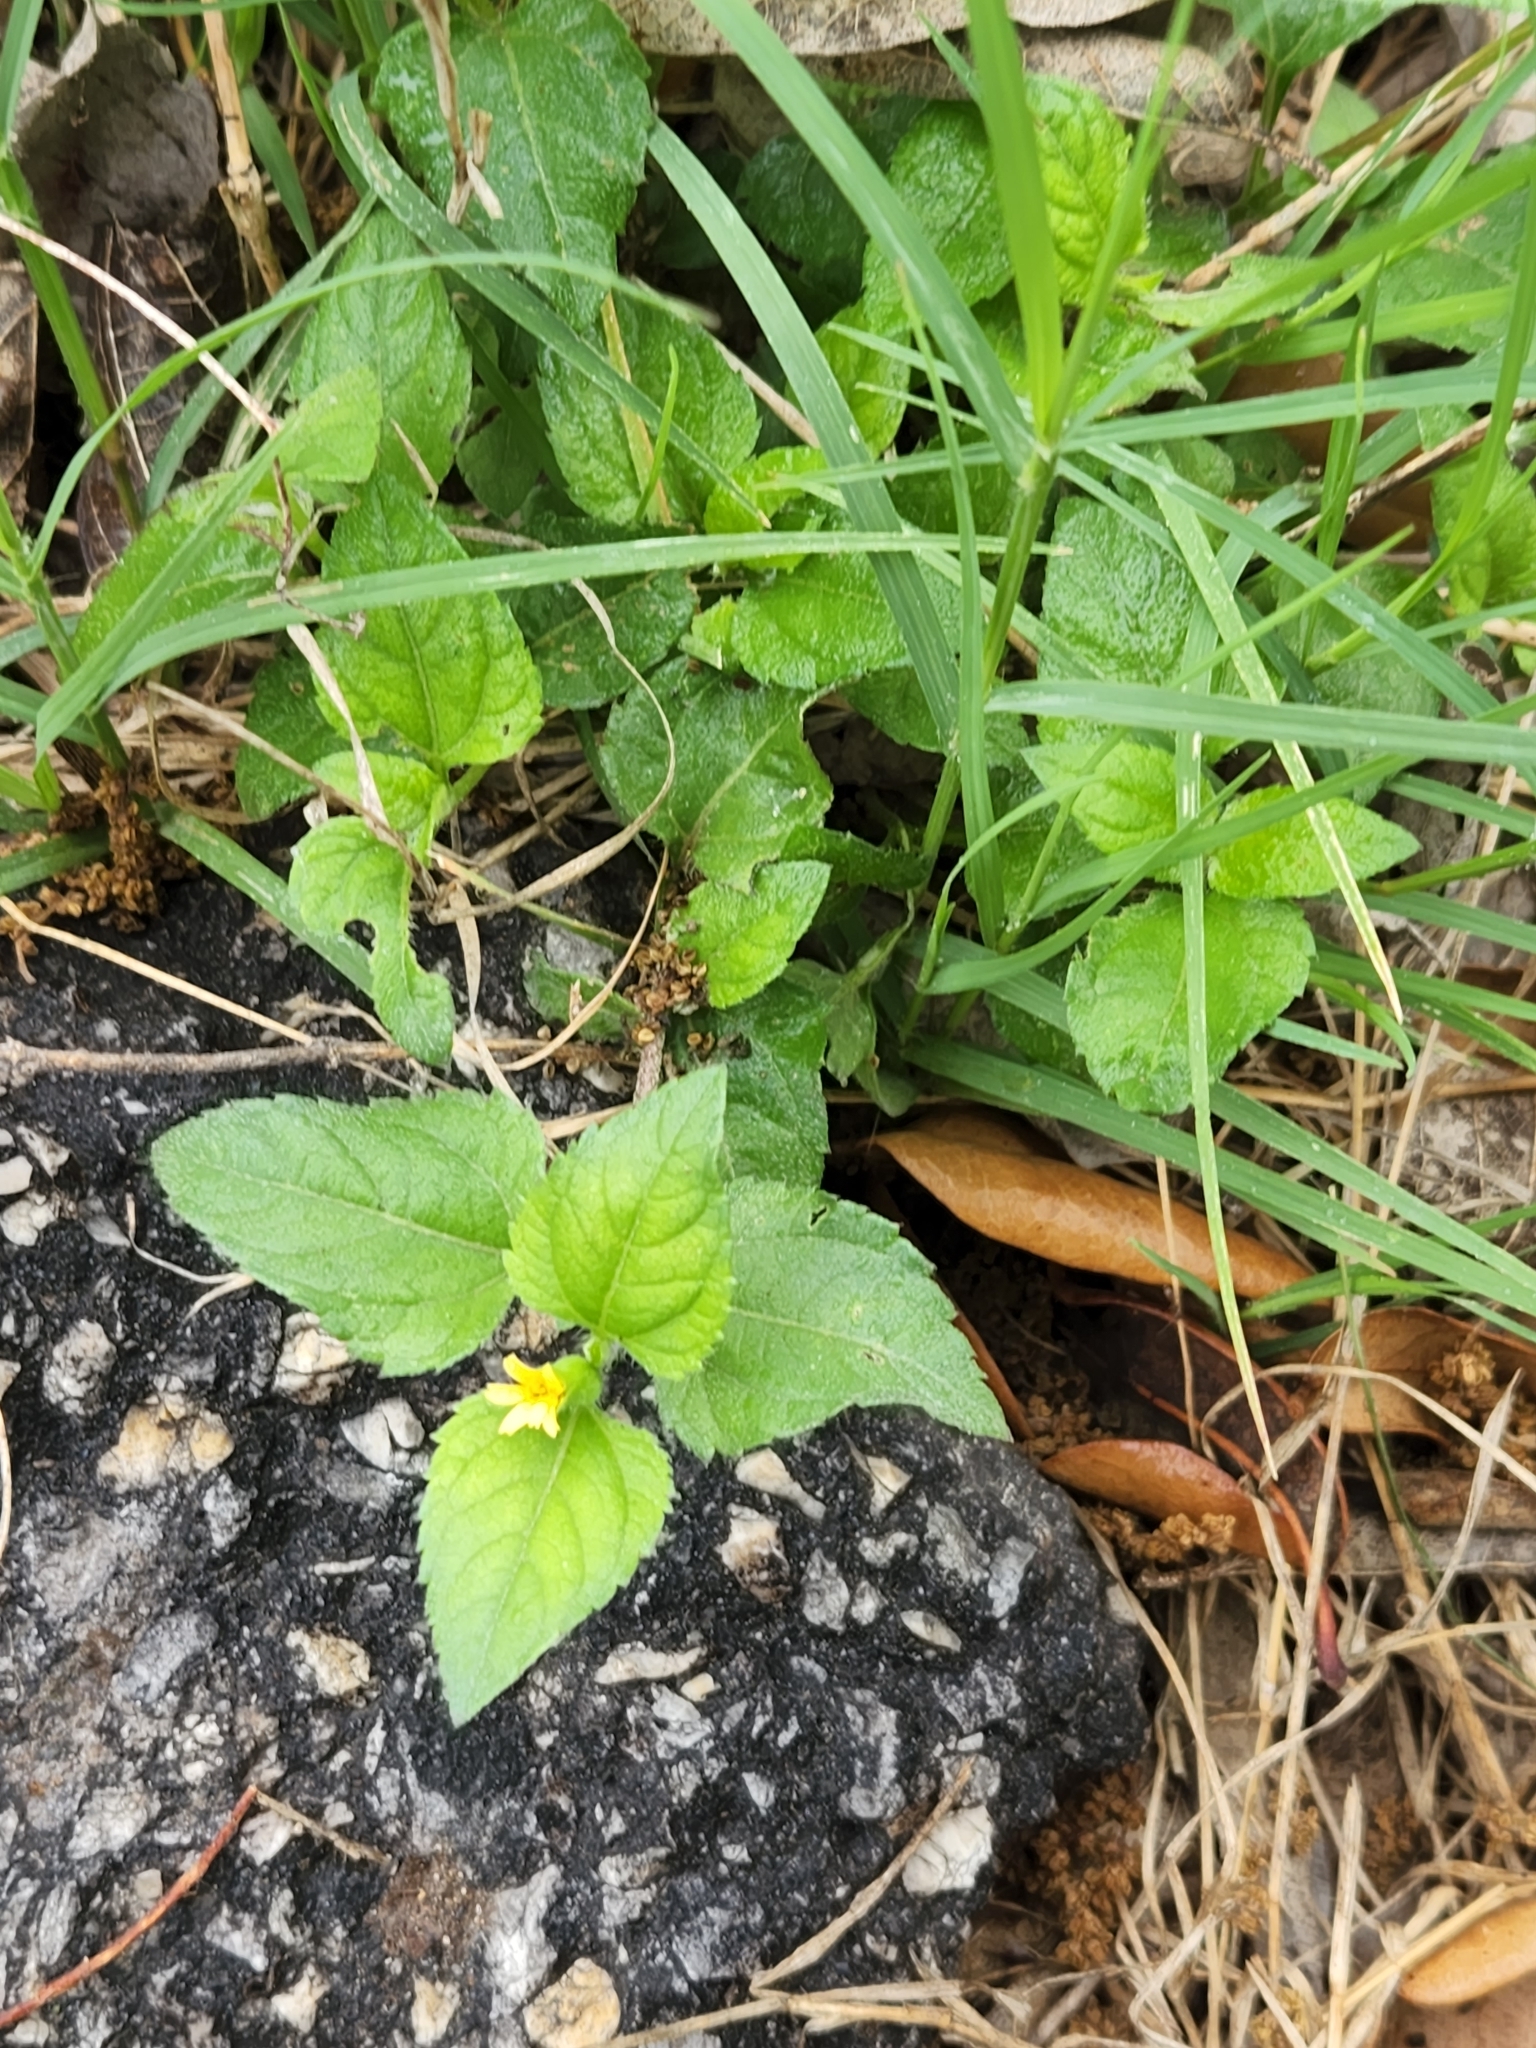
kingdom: Plantae
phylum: Tracheophyta
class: Magnoliopsida
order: Asterales
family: Asteraceae
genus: Calyptocarpus
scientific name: Calyptocarpus vialis
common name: Straggler daisy
